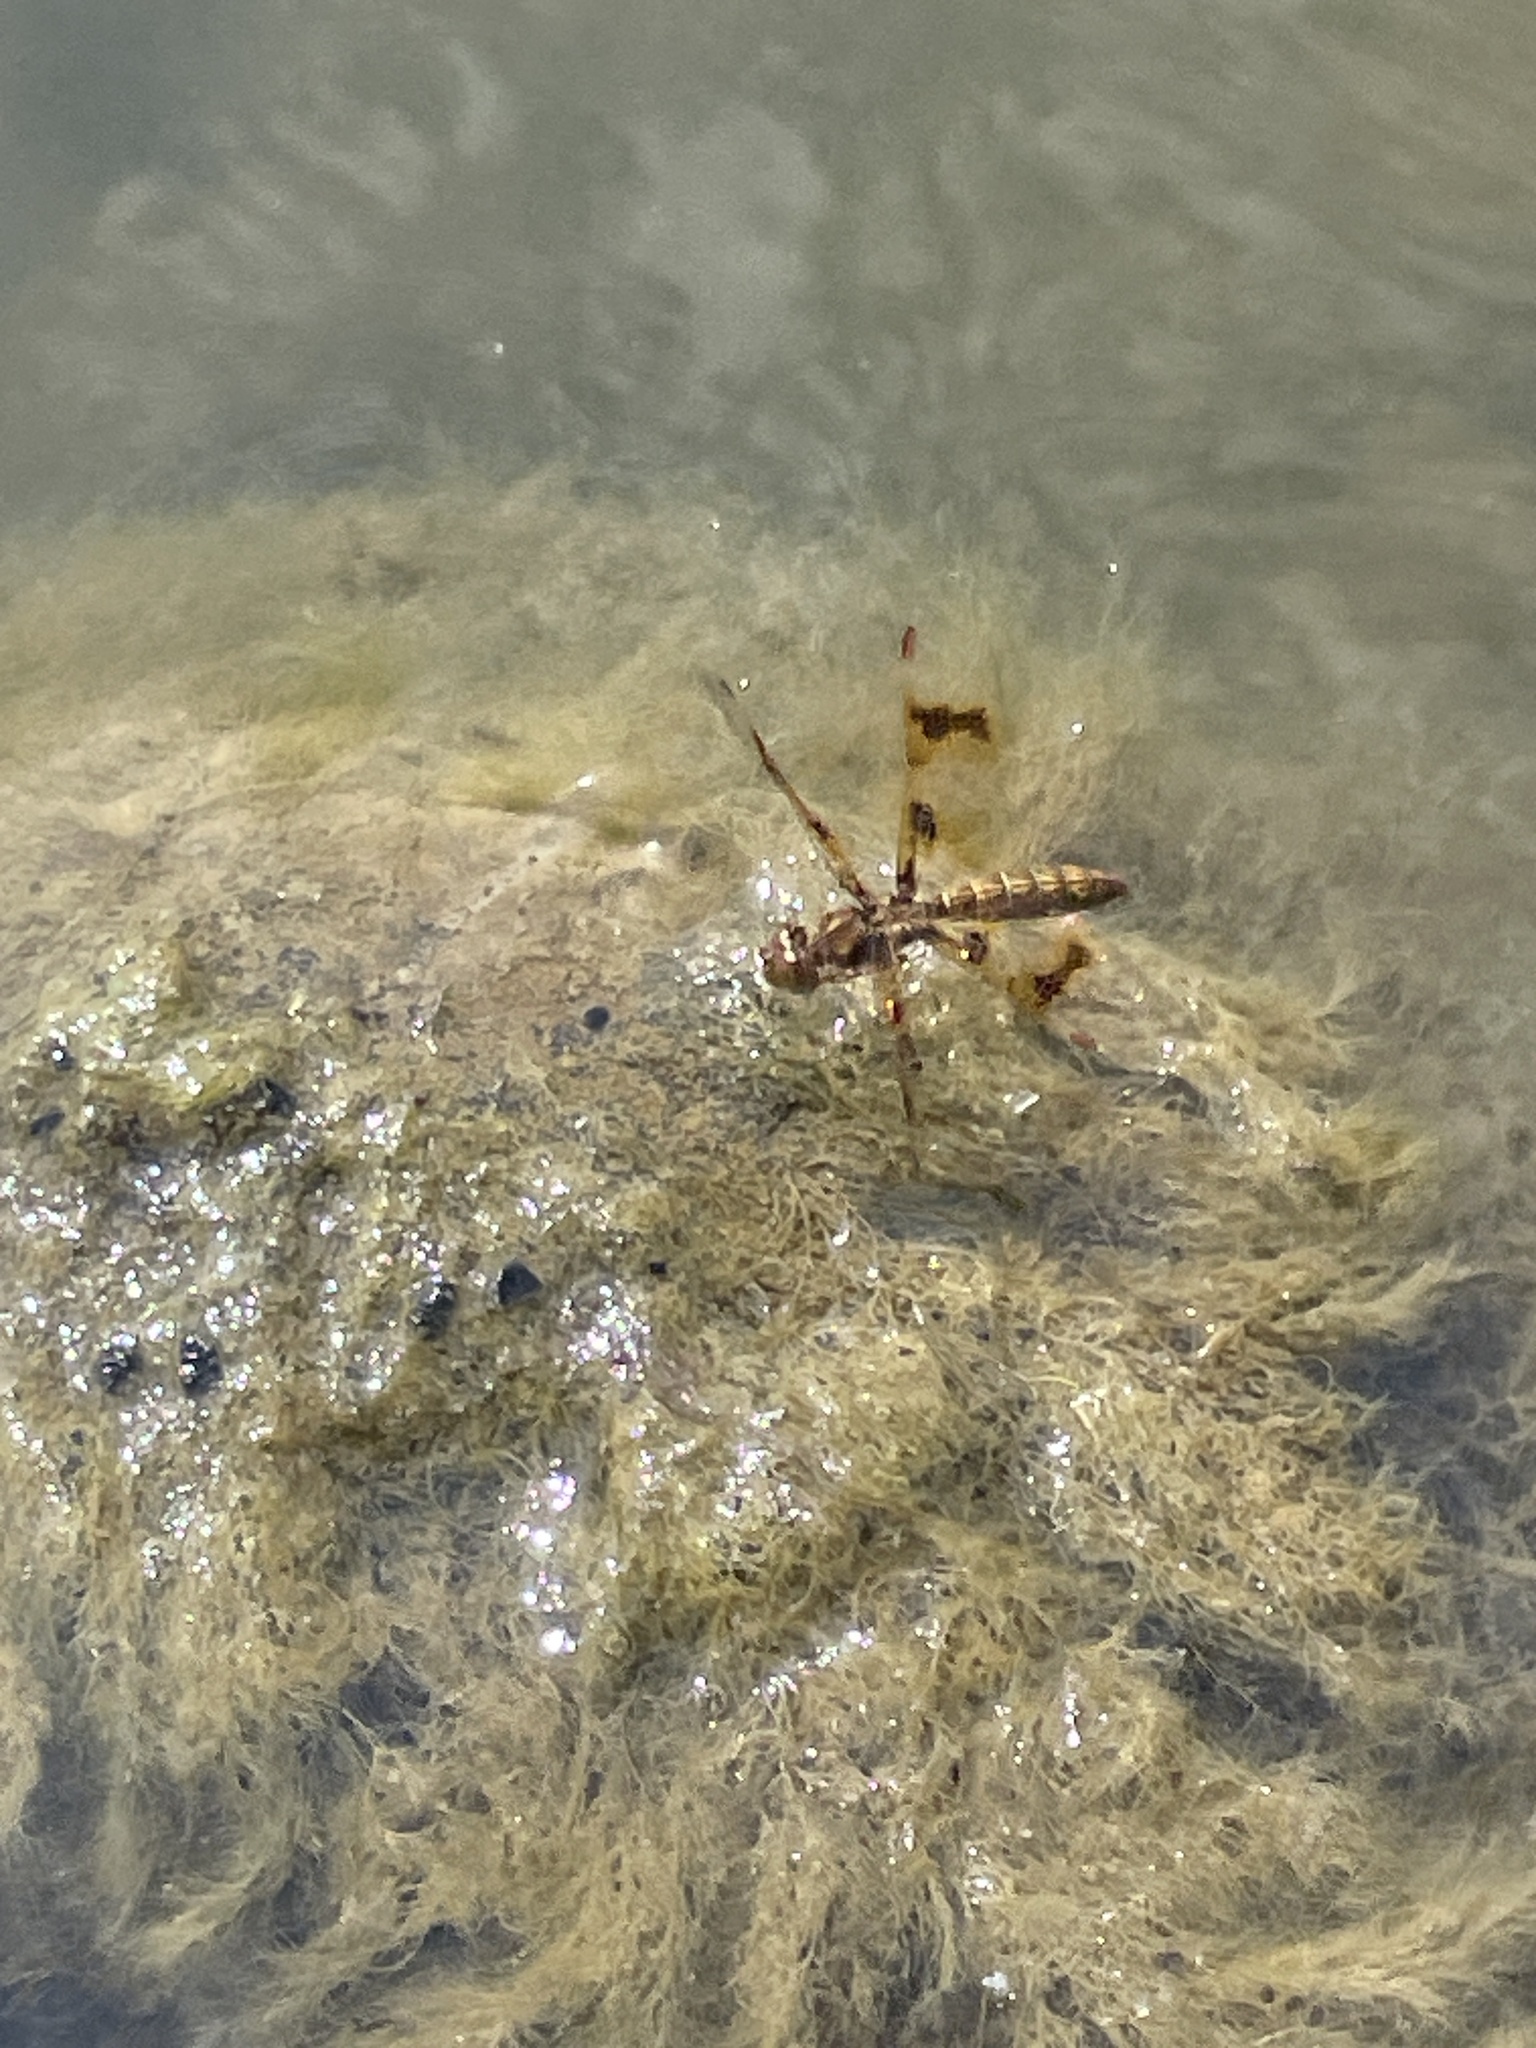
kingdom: Animalia
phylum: Arthropoda
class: Insecta
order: Odonata
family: Libellulidae
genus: Perithemis
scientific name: Perithemis tenera
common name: Eastern amberwing
